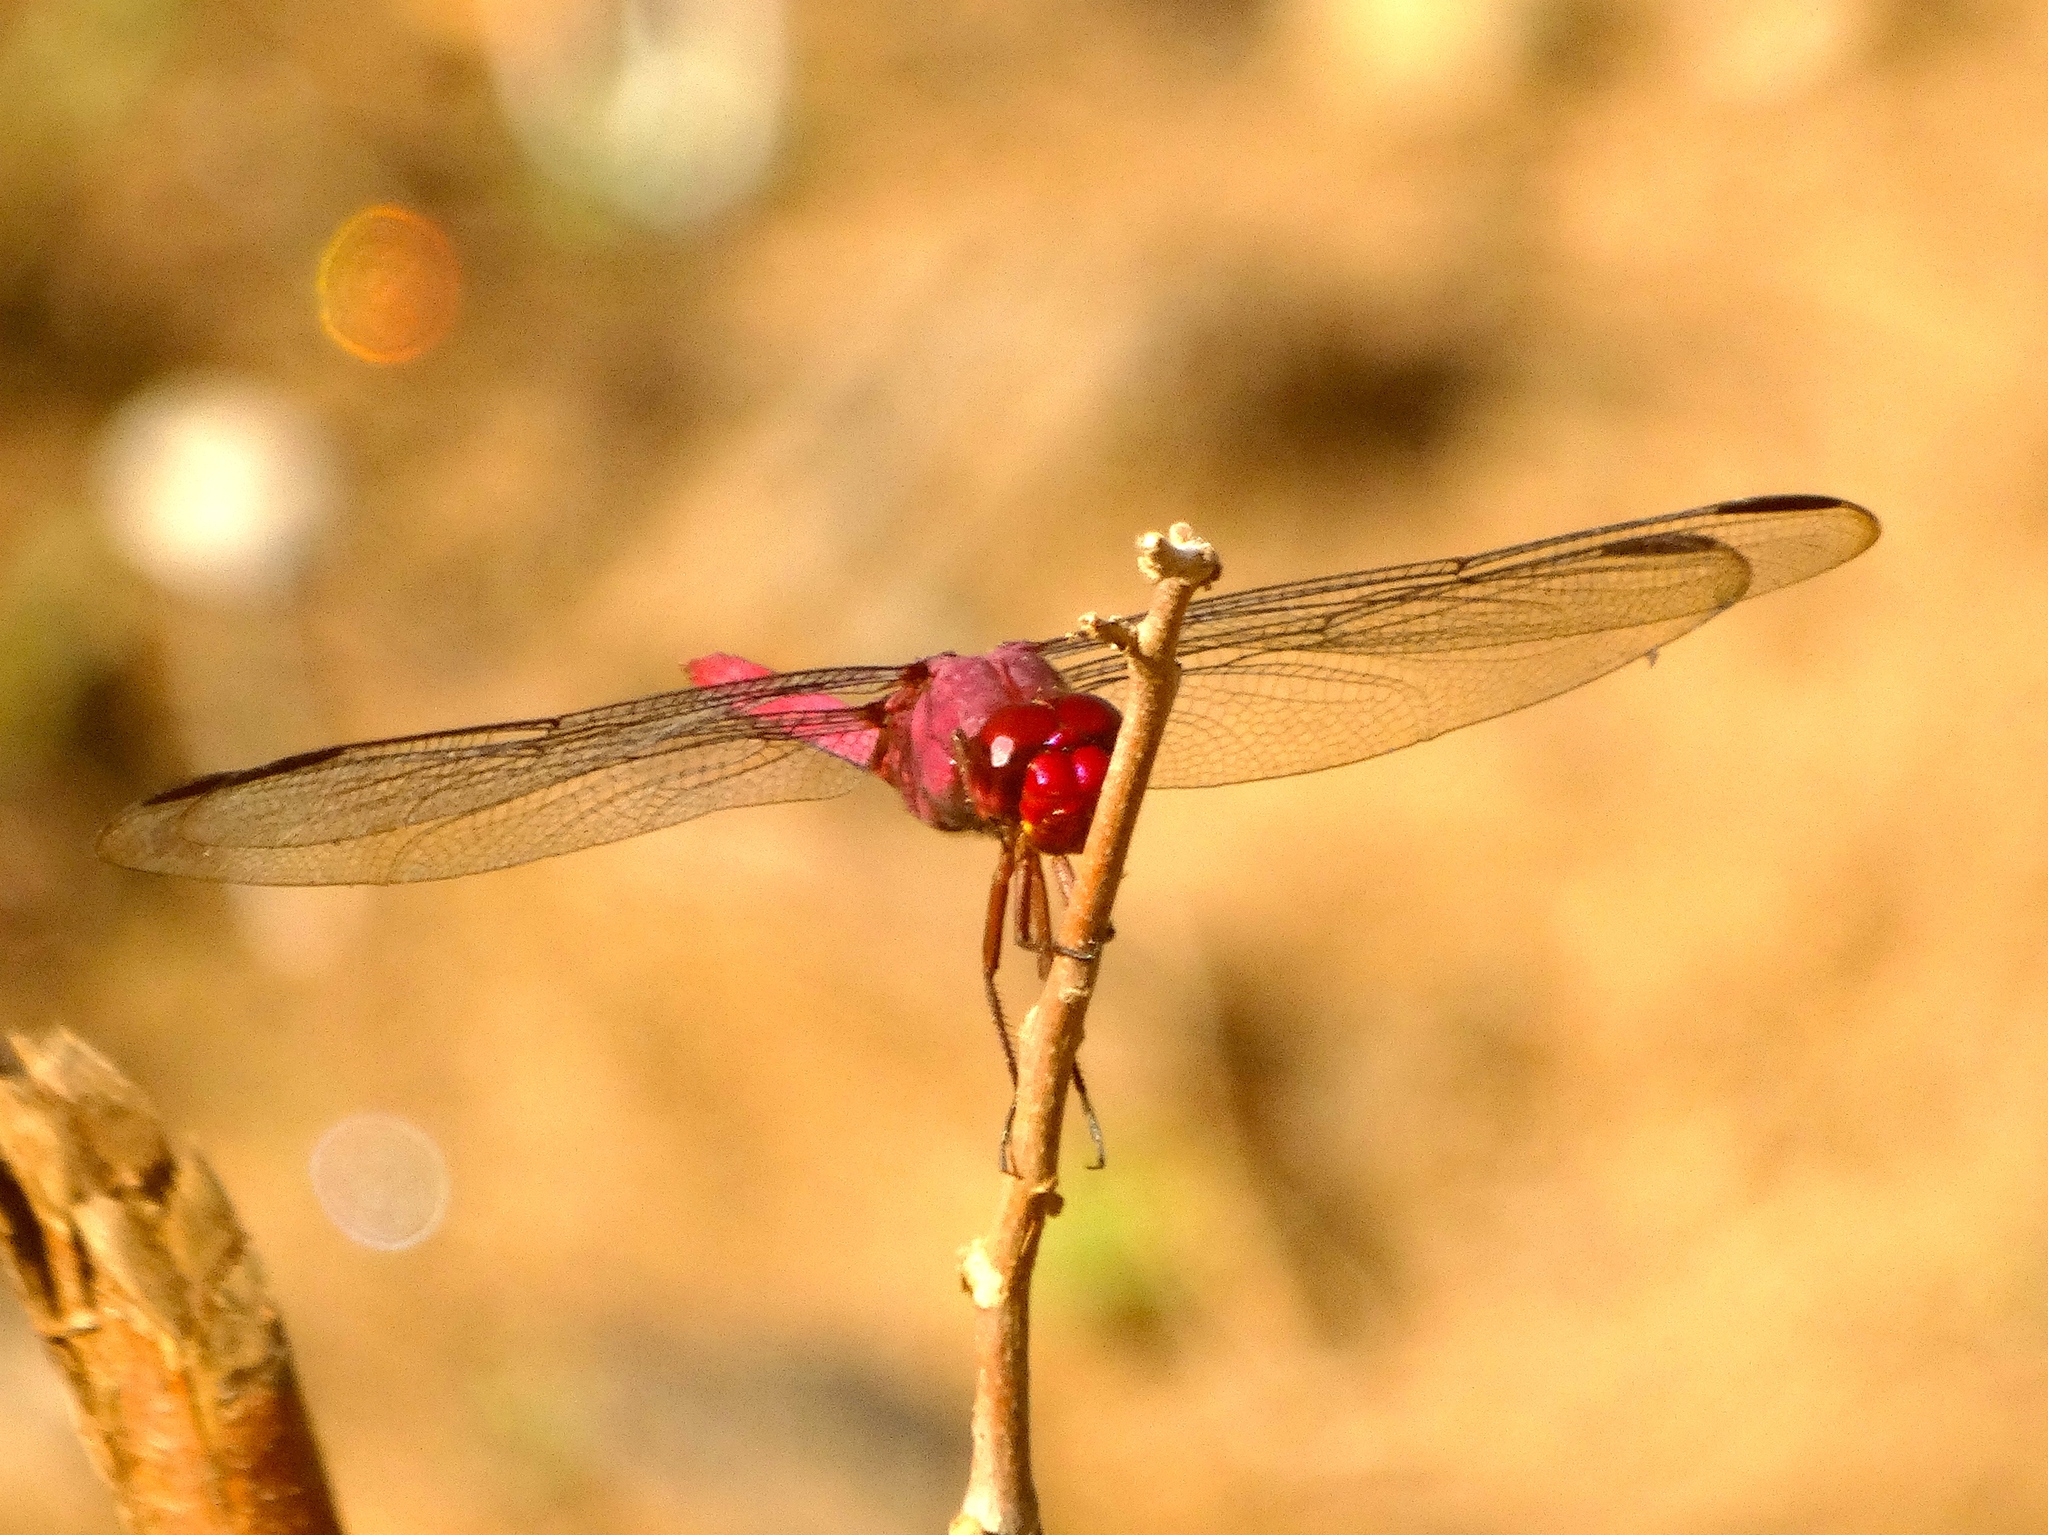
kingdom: Animalia
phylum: Arthropoda
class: Insecta
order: Odonata
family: Libellulidae
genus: Orthemis
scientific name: Orthemis discolor
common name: Carmine skimmer
